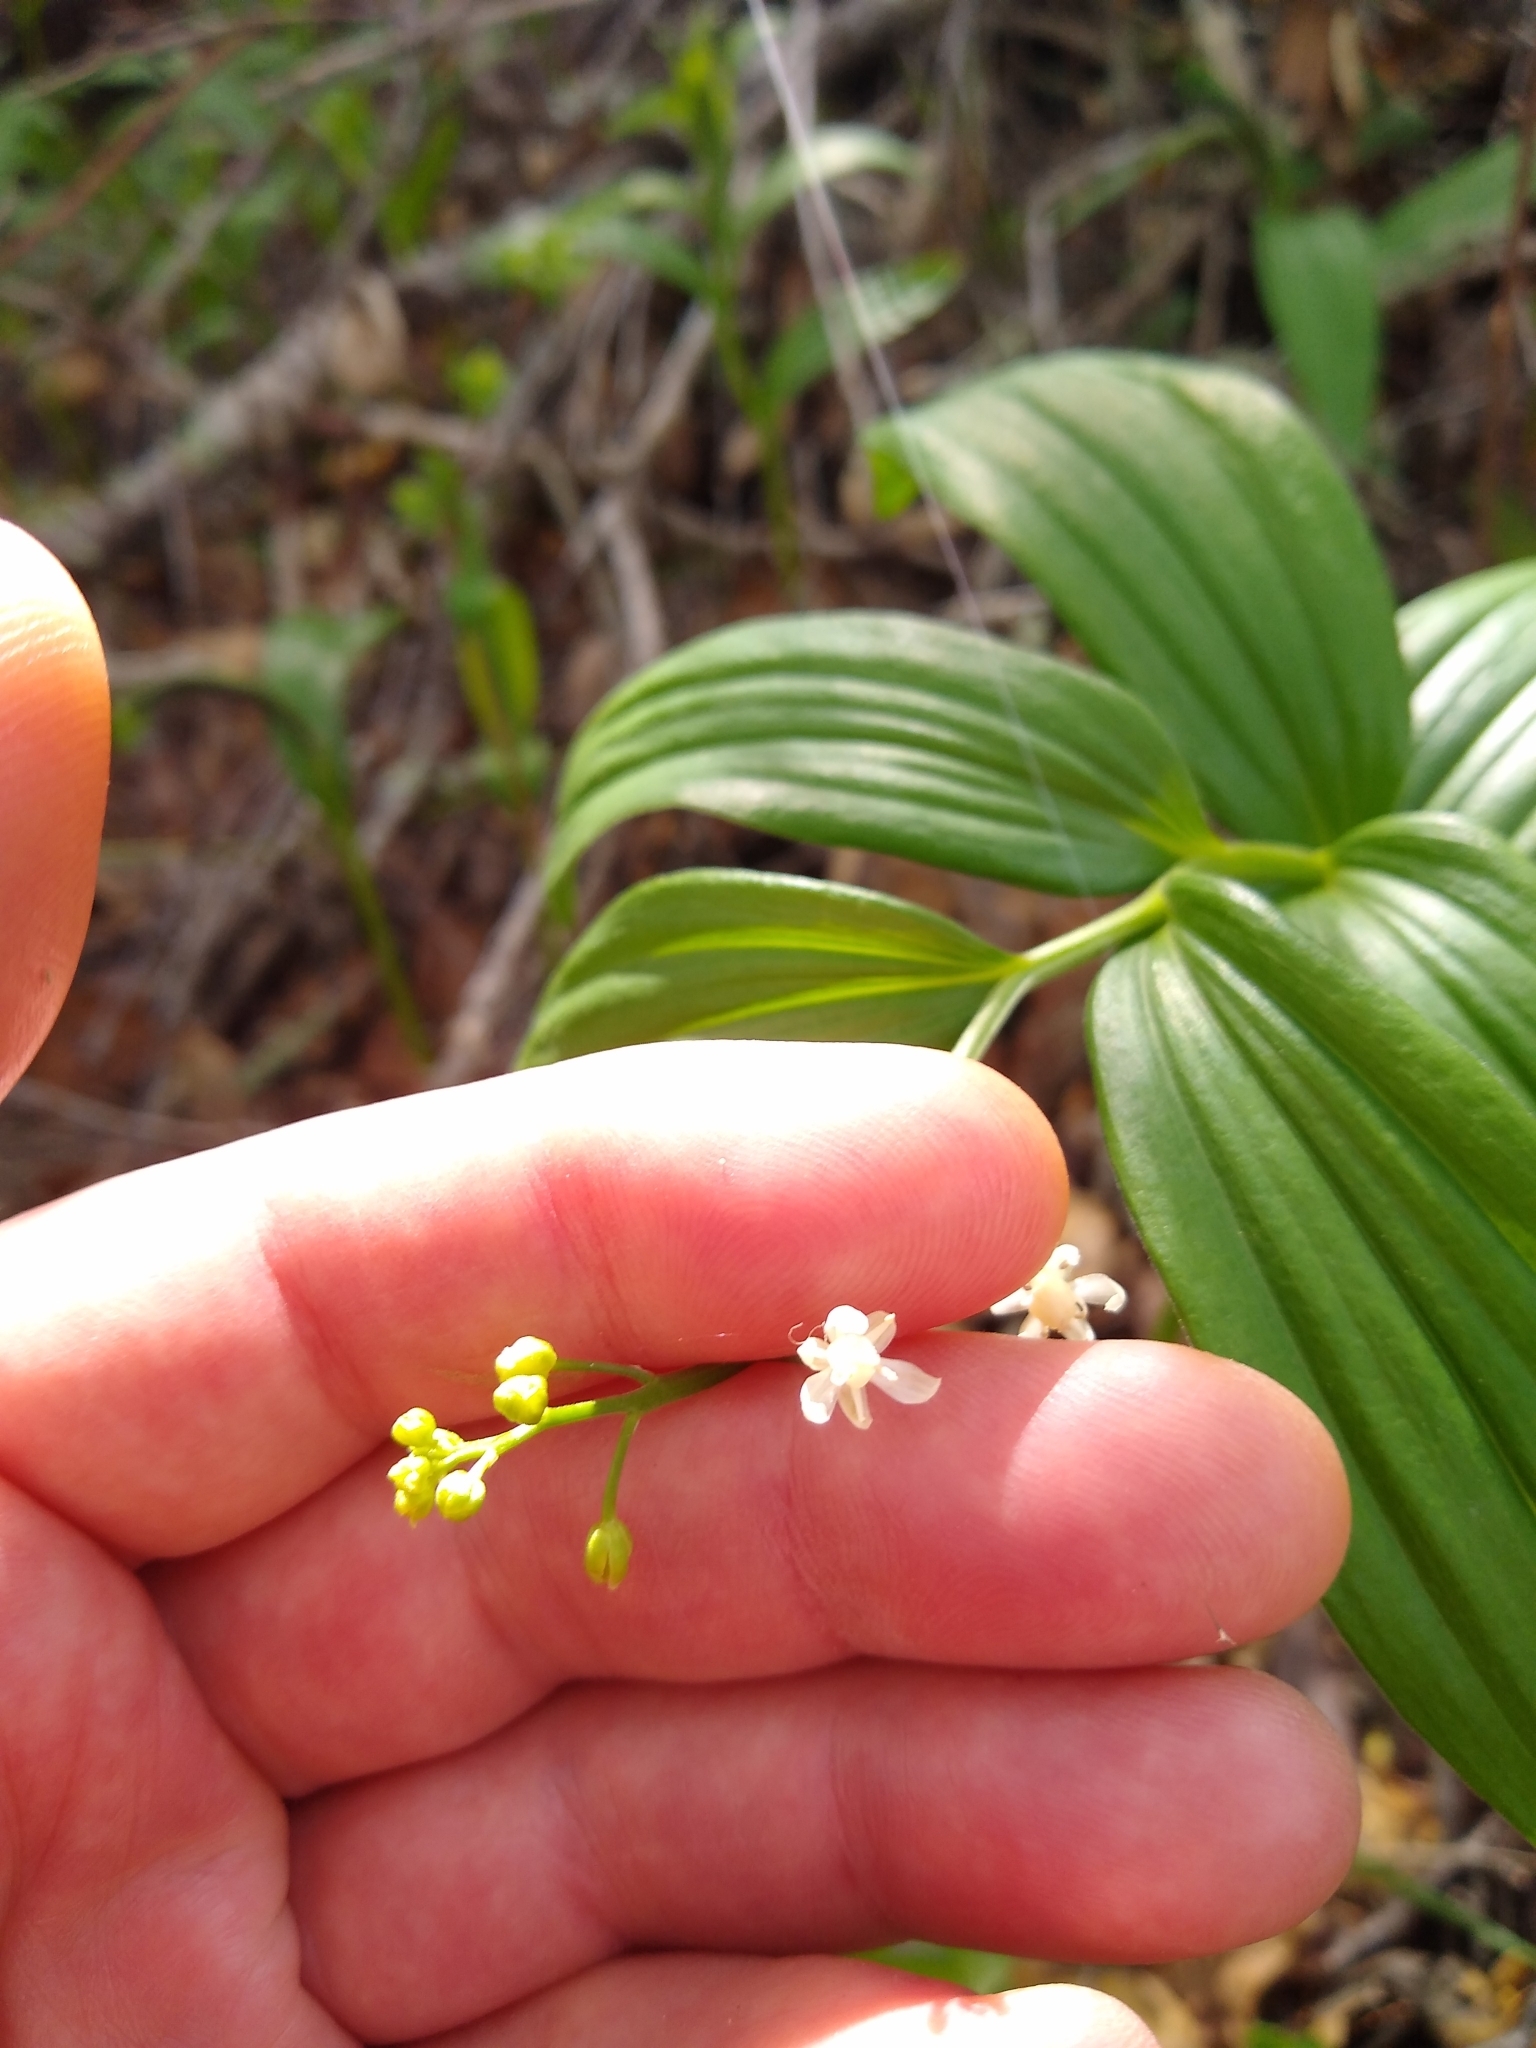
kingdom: Plantae
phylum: Tracheophyta
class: Liliopsida
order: Asparagales
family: Asparagaceae
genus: Maianthemum
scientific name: Maianthemum stellatum
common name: Little false solomon's seal
